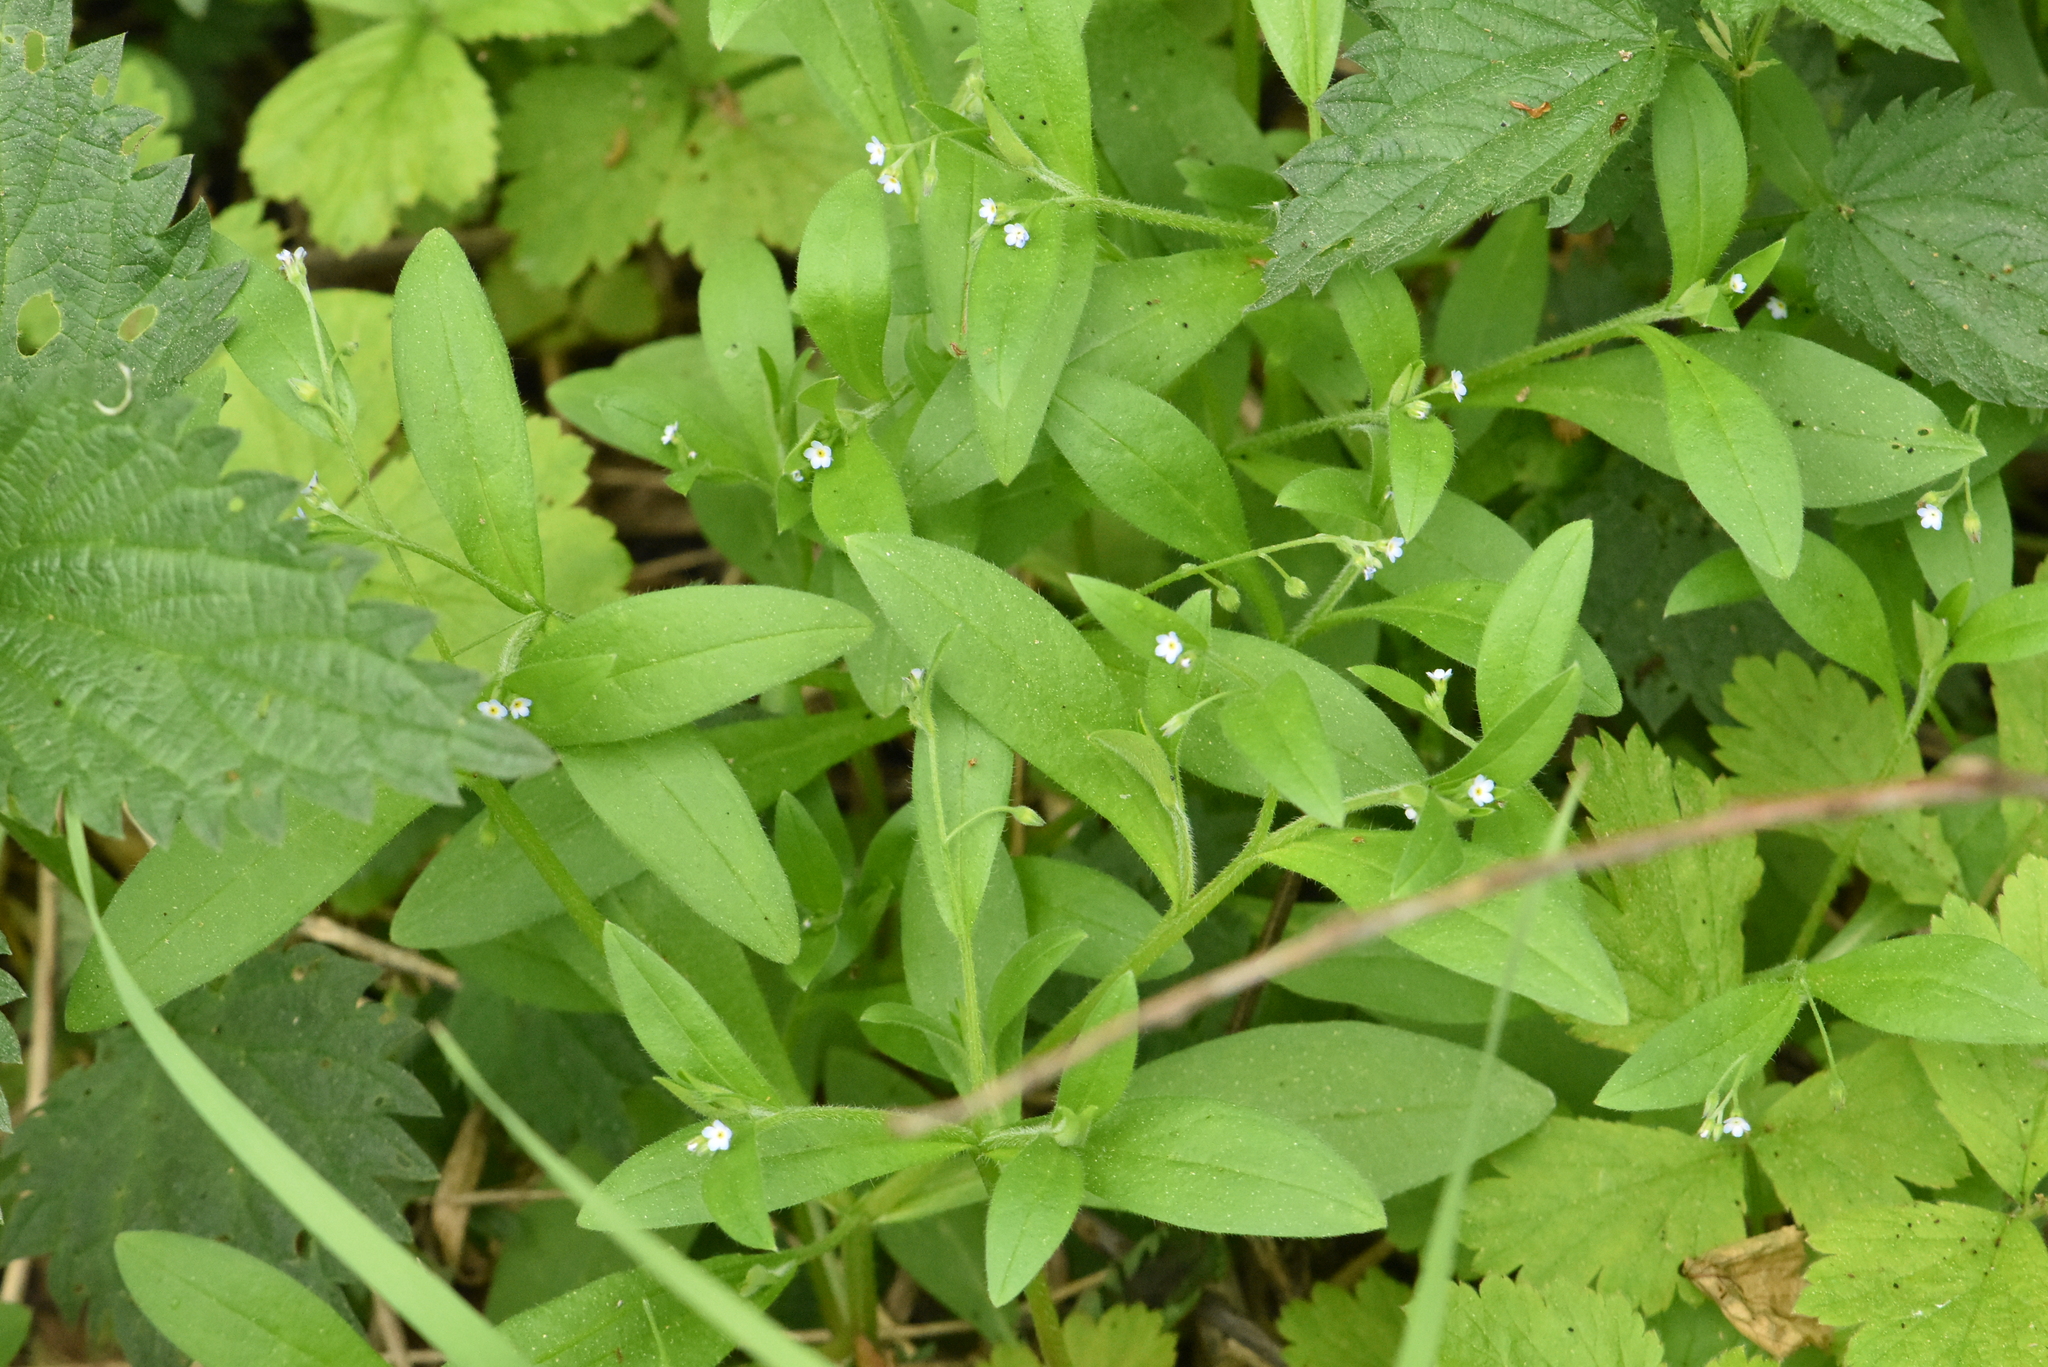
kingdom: Plantae
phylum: Tracheophyta
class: Magnoliopsida
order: Boraginales
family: Boraginaceae
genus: Myosotis
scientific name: Myosotis sparsiflora
